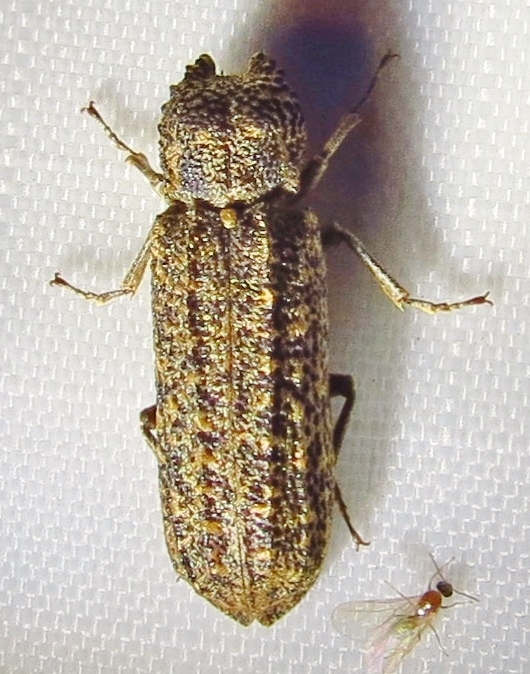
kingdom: Animalia
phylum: Arthropoda
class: Insecta
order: Coleoptera
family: Bostrichidae
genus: Lichenophanes
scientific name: Lichenophanes bicornis
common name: Two-horned powder-post beetle
